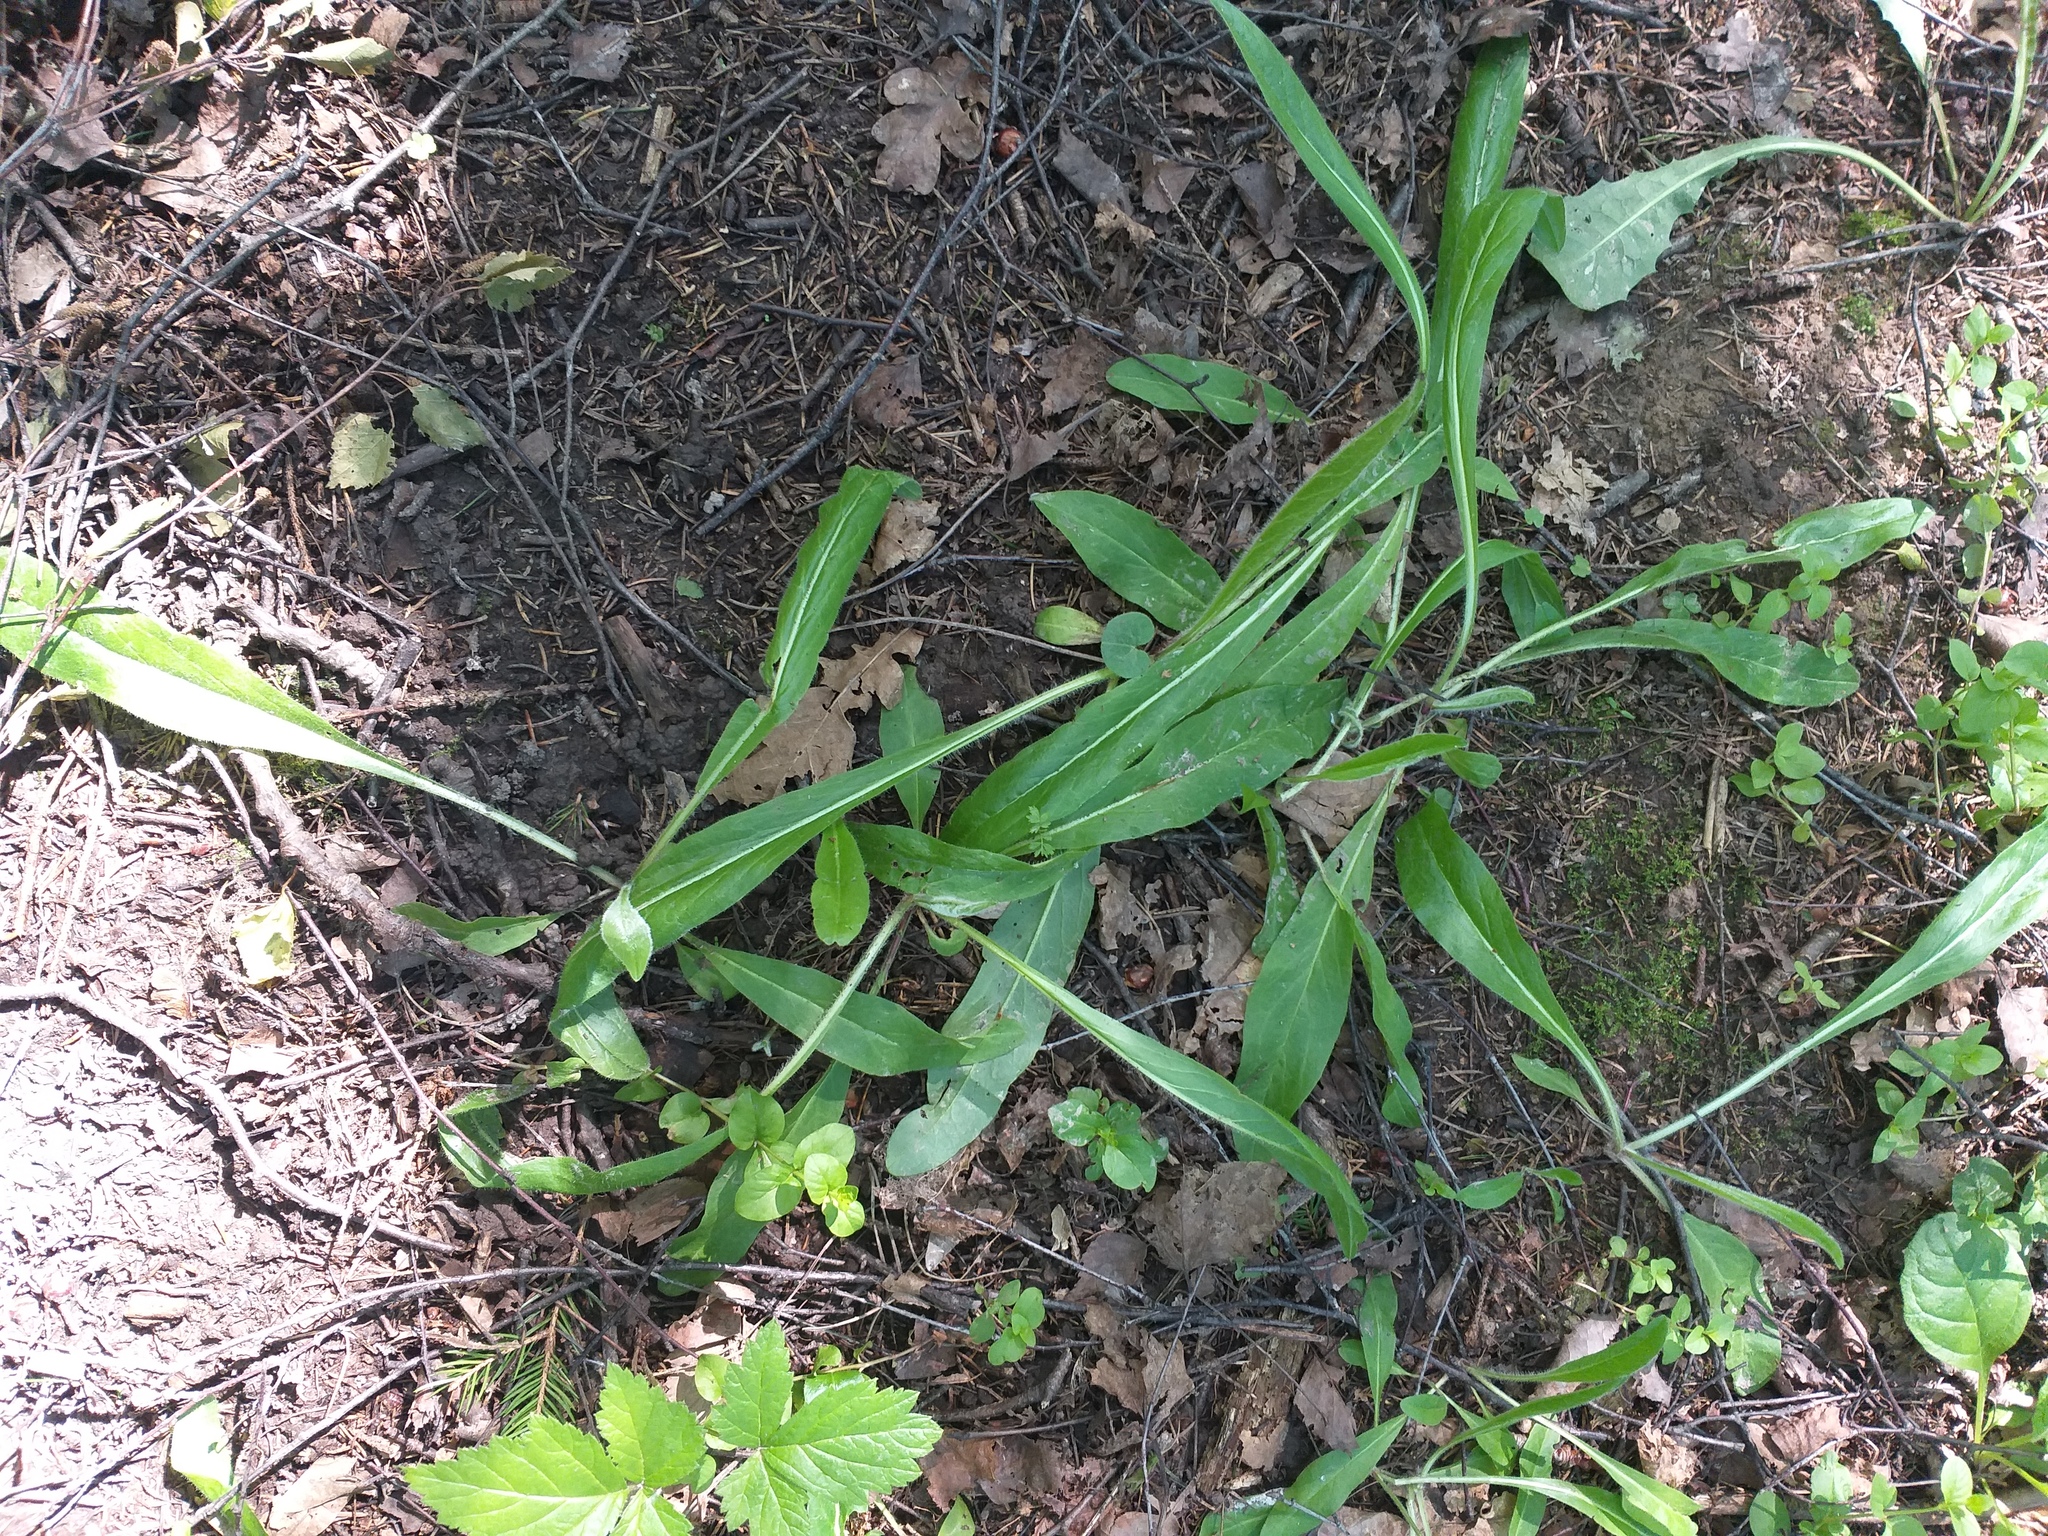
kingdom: Plantae
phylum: Tracheophyta
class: Magnoliopsida
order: Asterales
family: Asteraceae
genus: Pilosella
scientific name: Pilosella onegensis
